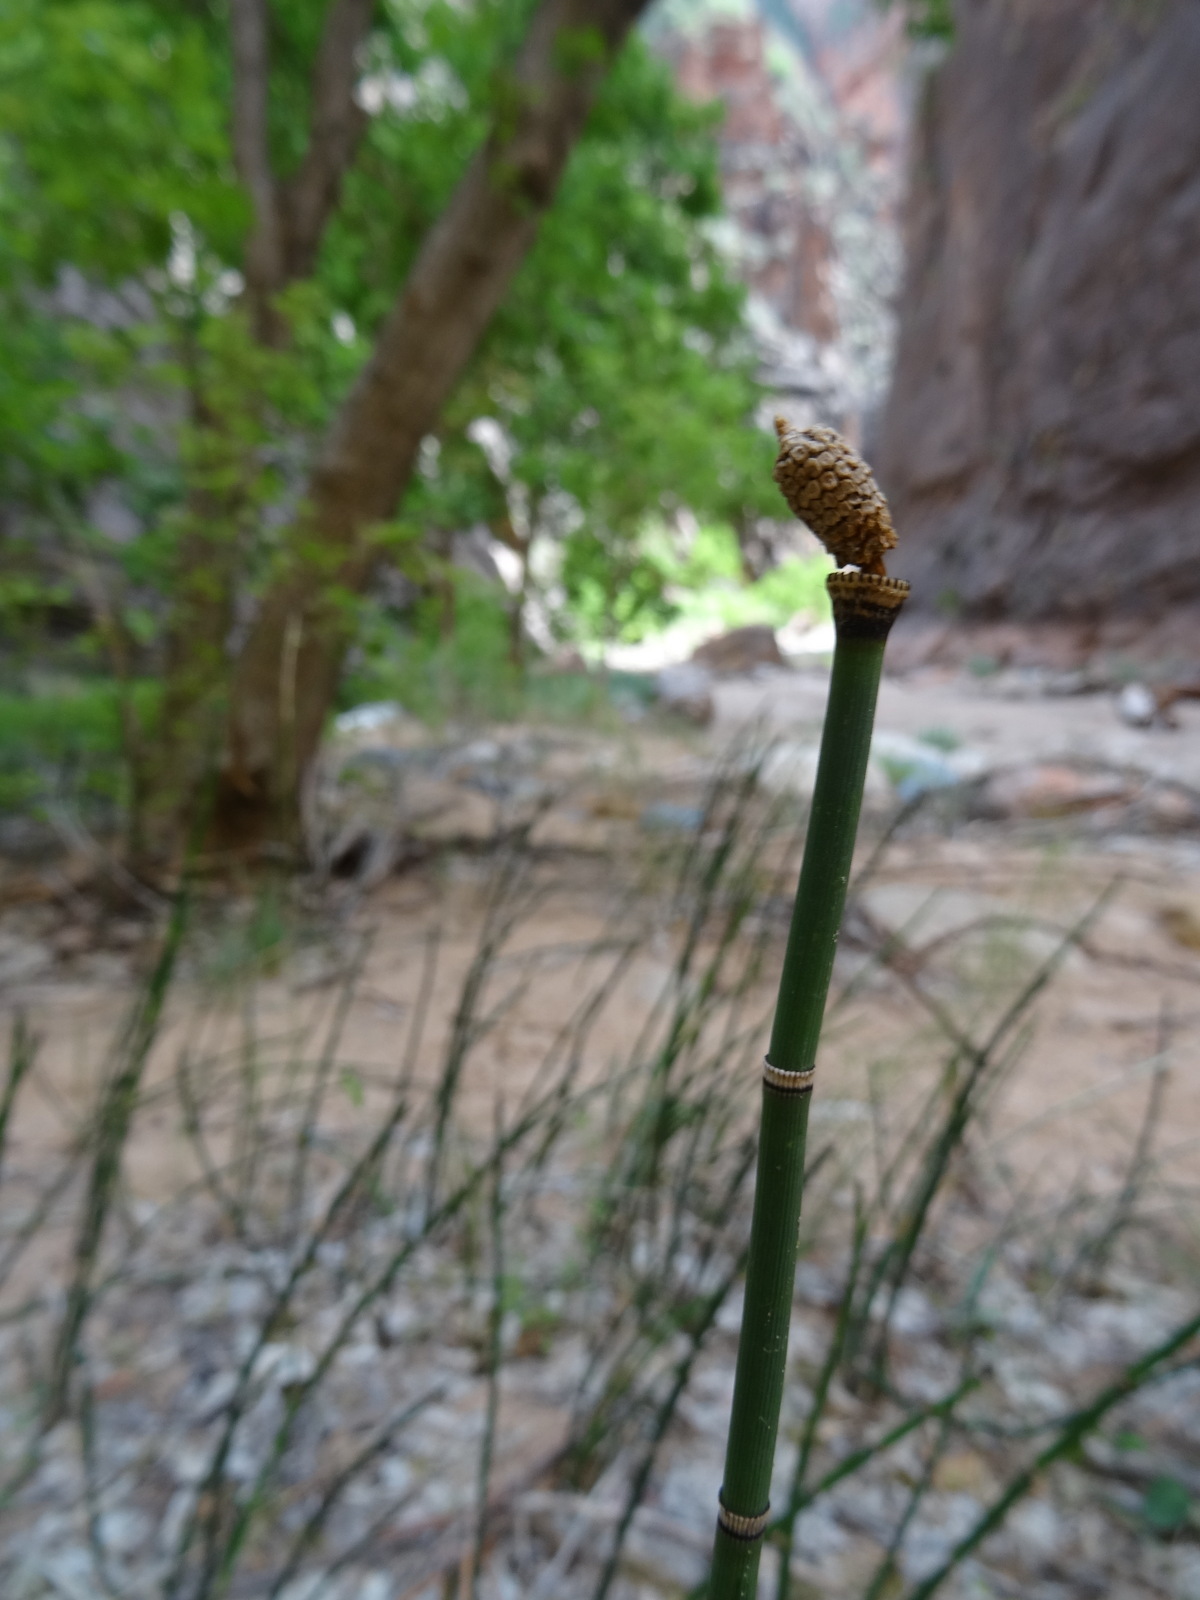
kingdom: Plantae
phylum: Tracheophyta
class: Polypodiopsida
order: Equisetales
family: Equisetaceae
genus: Equisetum
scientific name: Equisetum praealtum
